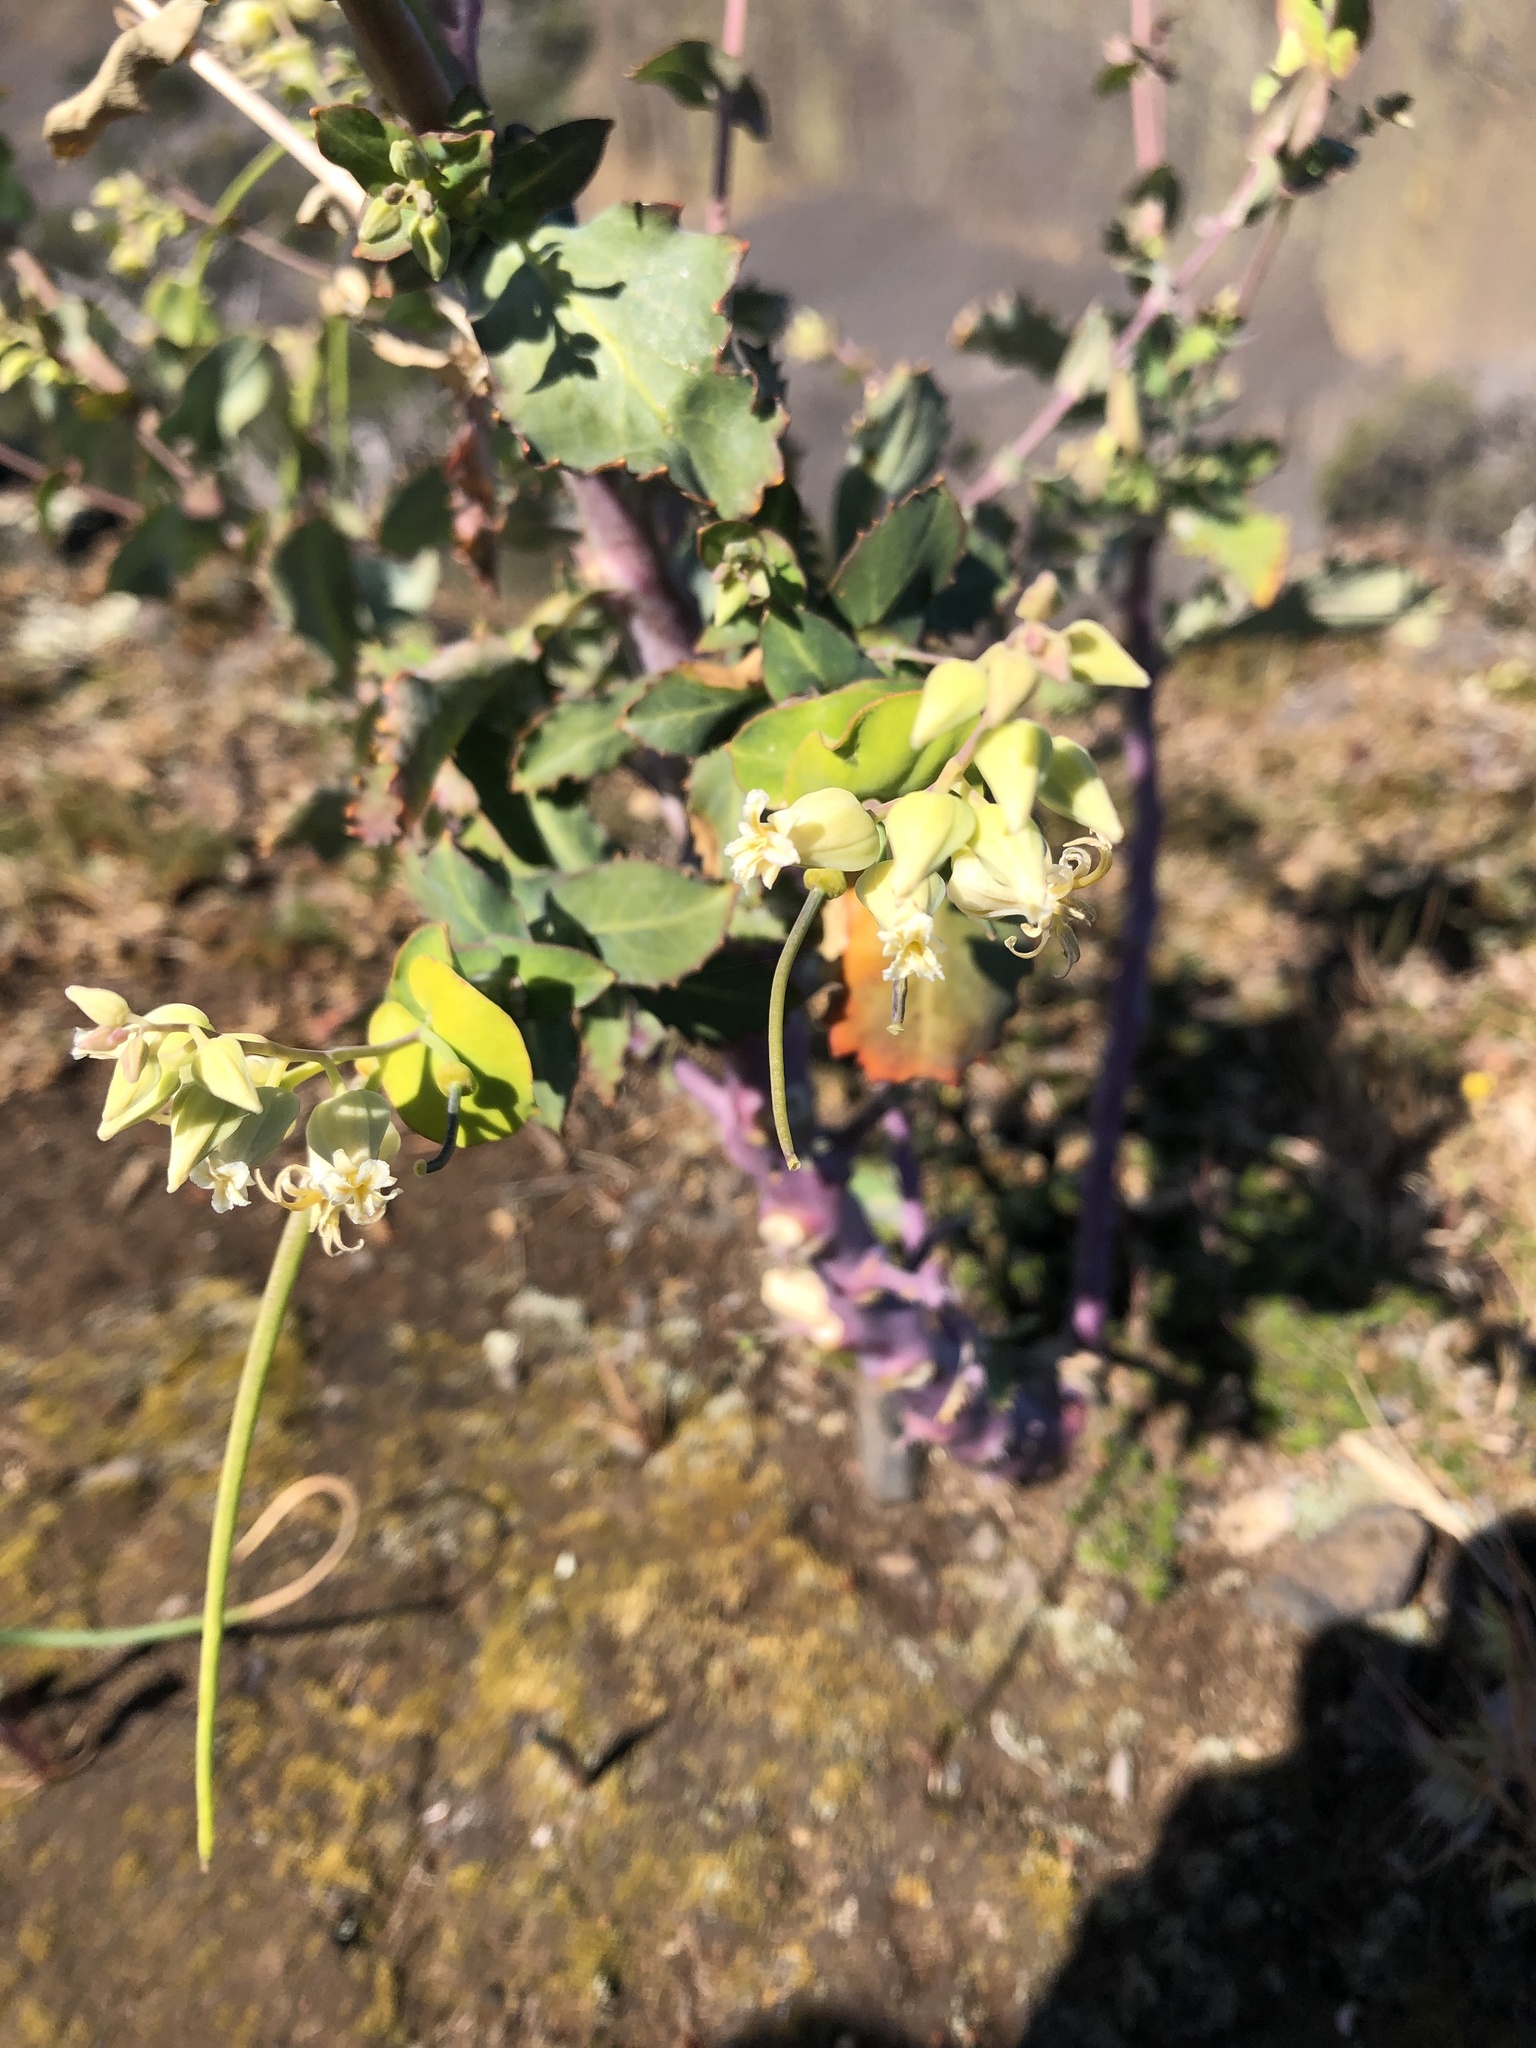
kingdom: Plantae
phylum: Tracheophyta
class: Magnoliopsida
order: Brassicales
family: Brassicaceae
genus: Streptanthus
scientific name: Streptanthus tortuosus
